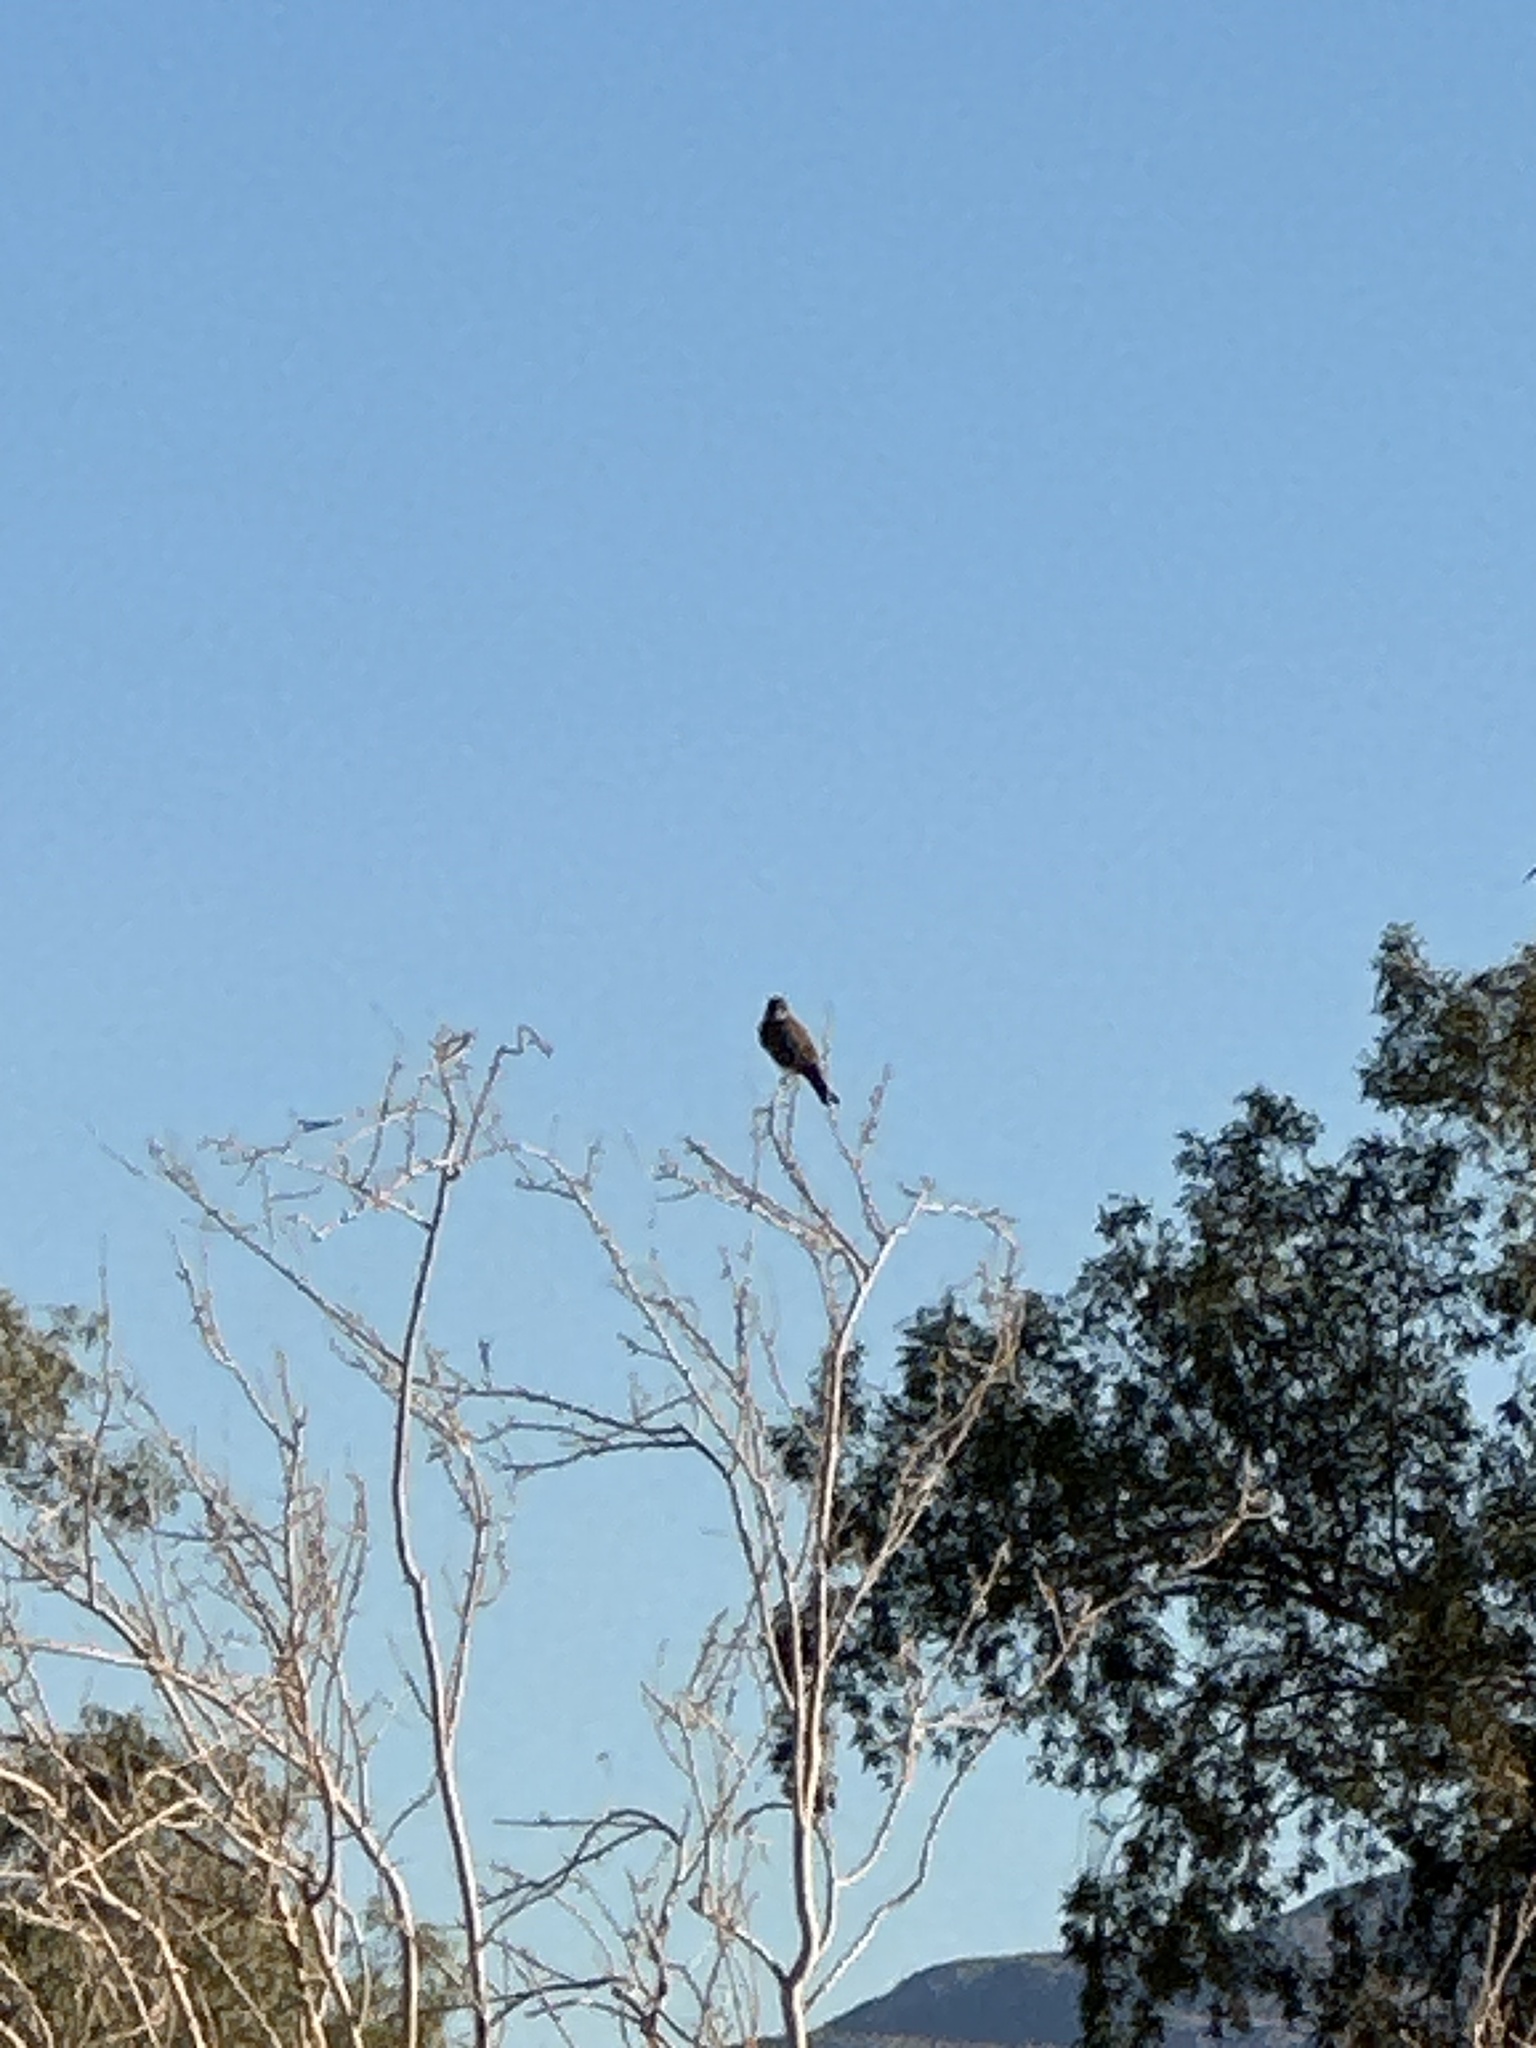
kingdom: Animalia
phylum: Chordata
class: Aves
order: Passeriformes
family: Tyrannidae
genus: Sayornis
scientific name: Sayornis saya
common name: Say's phoebe
